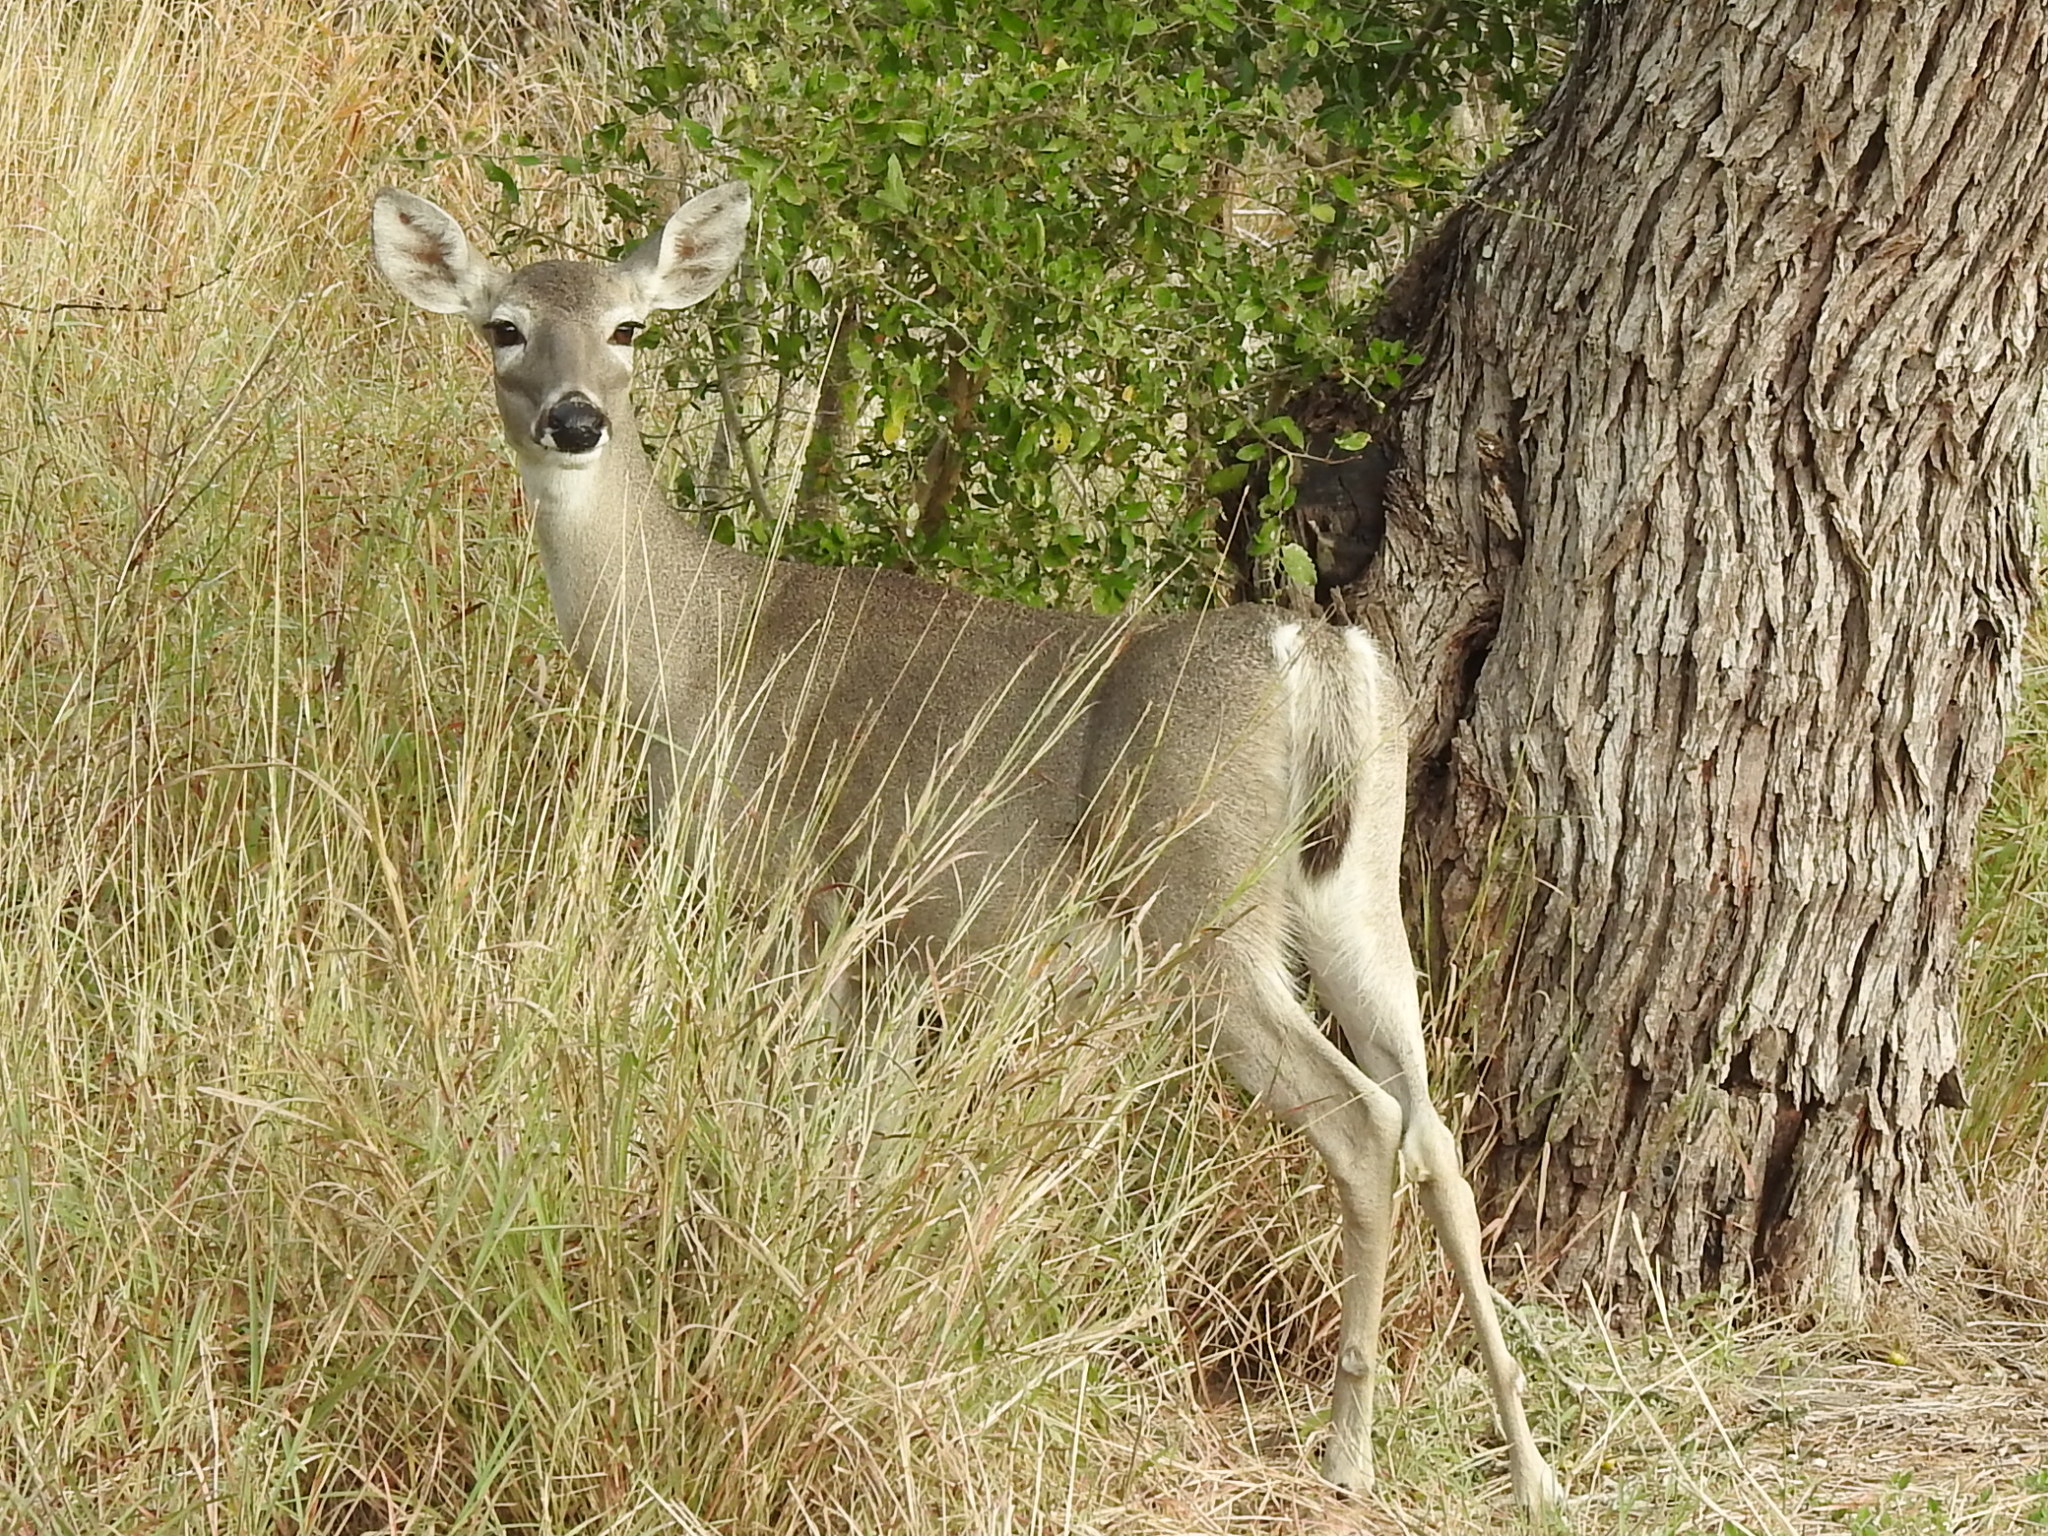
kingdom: Animalia
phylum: Chordata
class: Mammalia
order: Artiodactyla
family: Cervidae
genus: Odocoileus
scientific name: Odocoileus virginianus
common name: White-tailed deer
